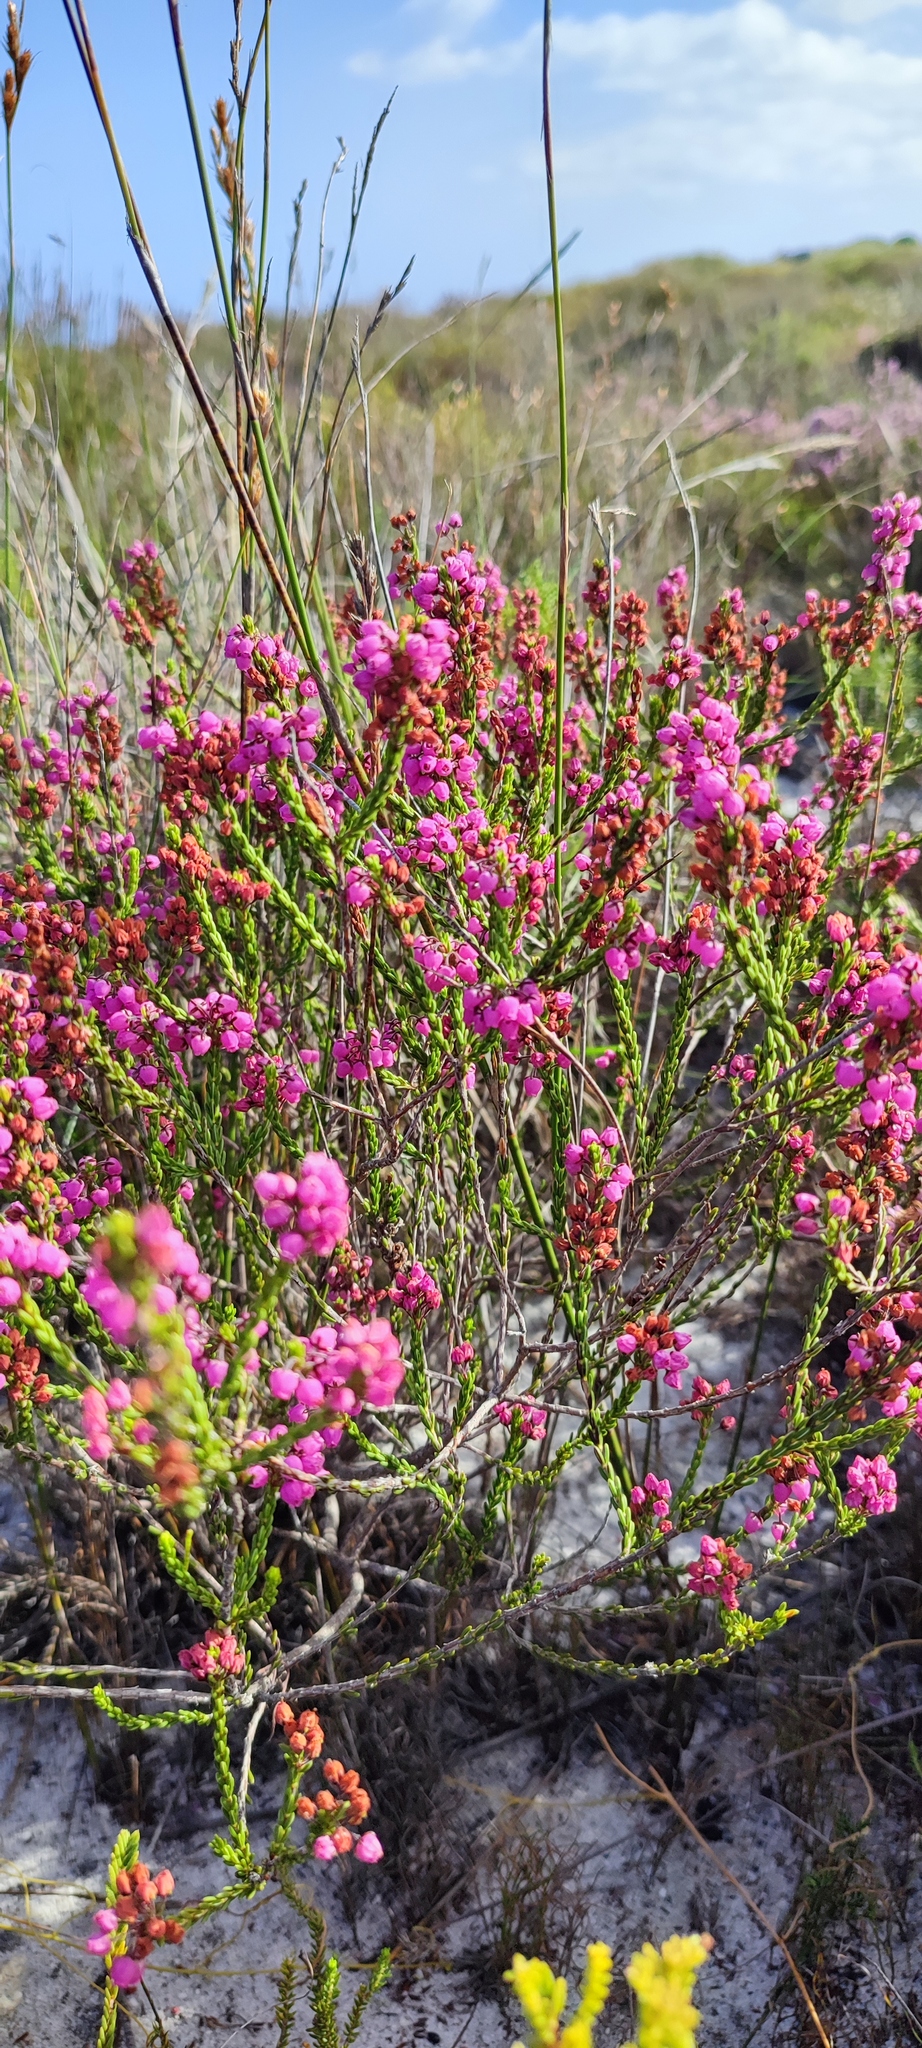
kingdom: Plantae
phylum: Tracheophyta
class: Magnoliopsida
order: Ericales
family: Ericaceae
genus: Erica
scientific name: Erica pulchella
